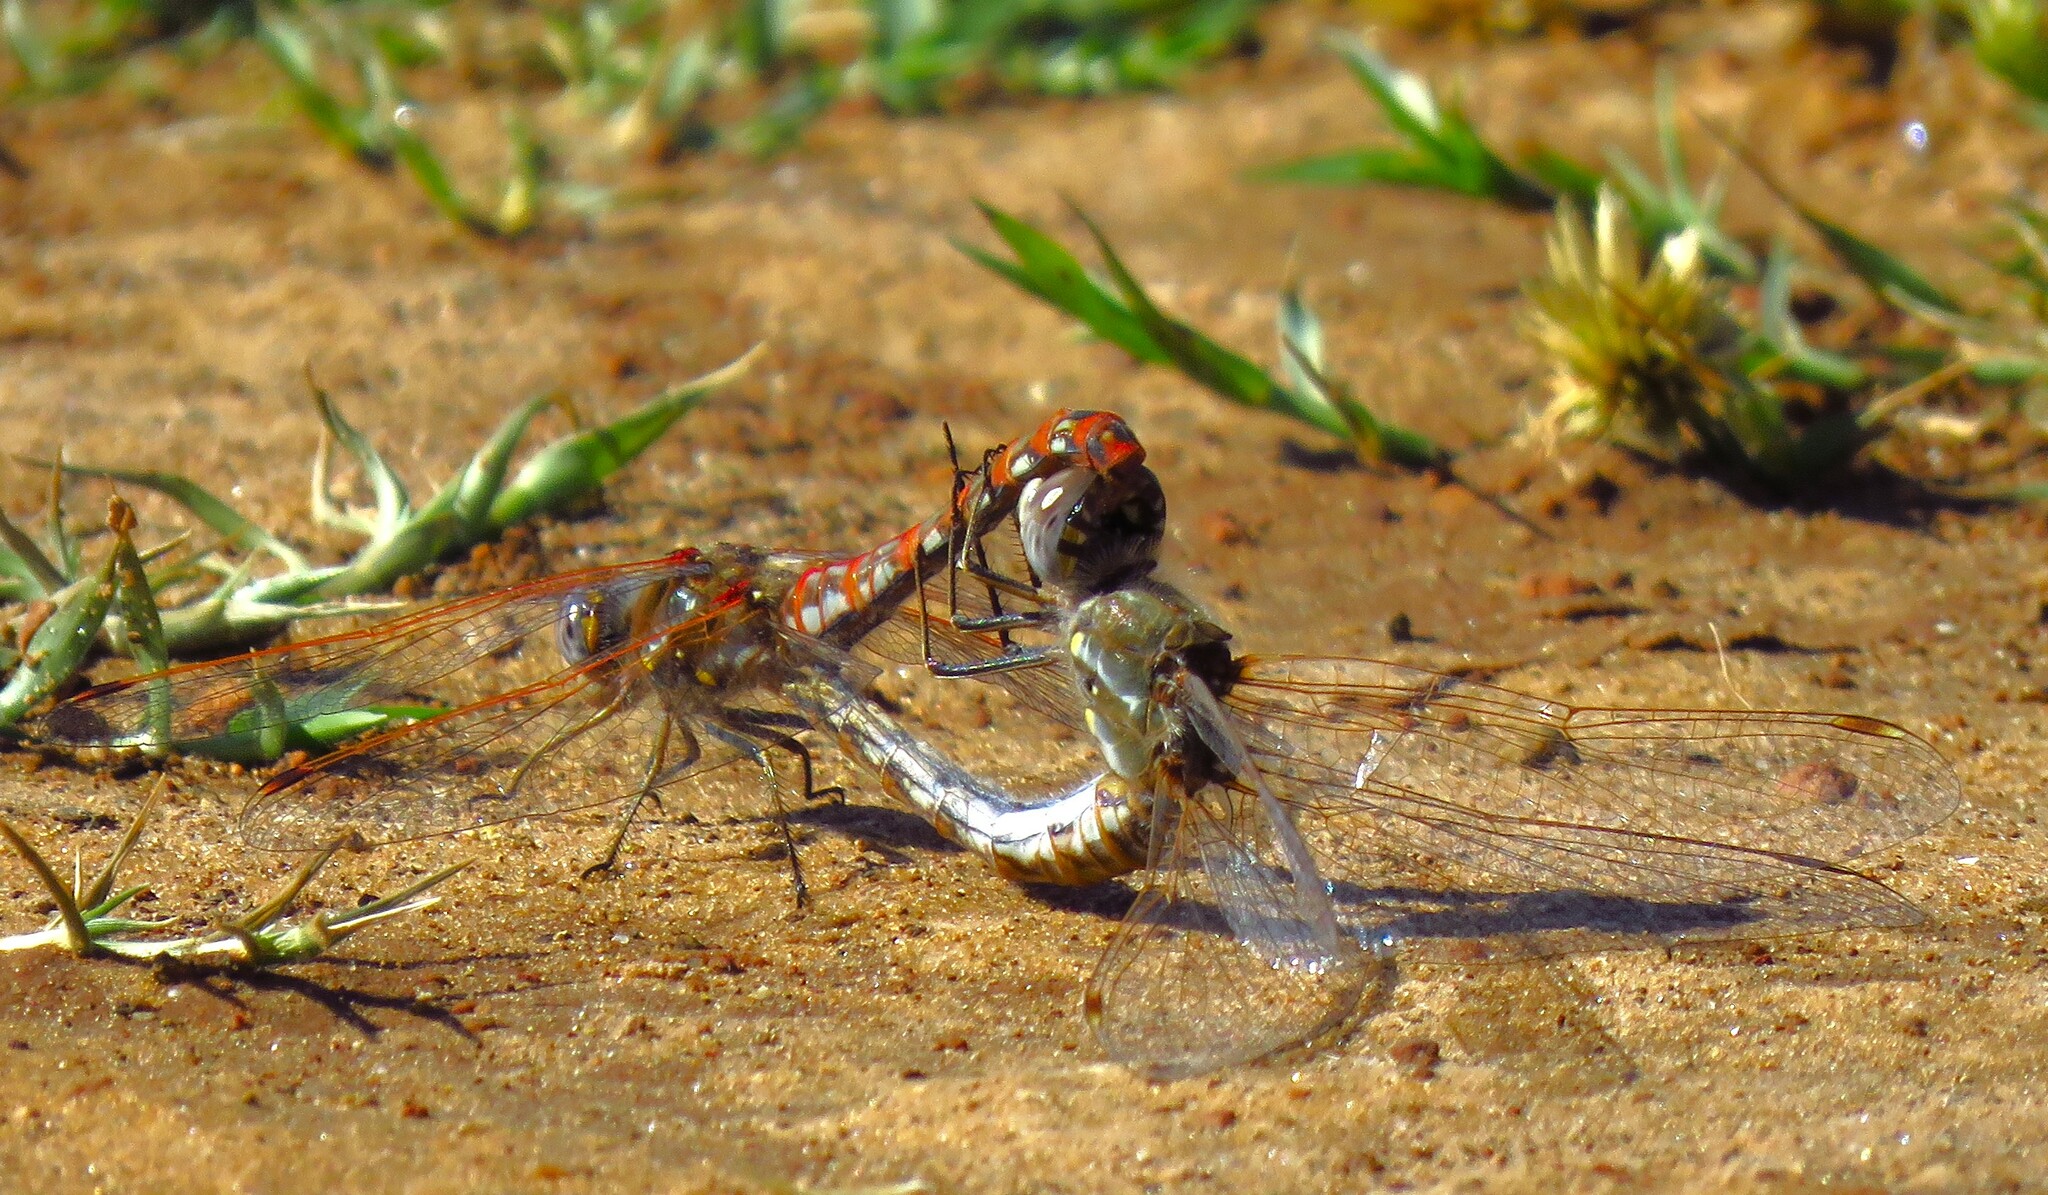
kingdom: Animalia
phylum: Arthropoda
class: Insecta
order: Odonata
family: Libellulidae
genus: Sympetrum
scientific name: Sympetrum corruptum
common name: Variegated meadowhawk
